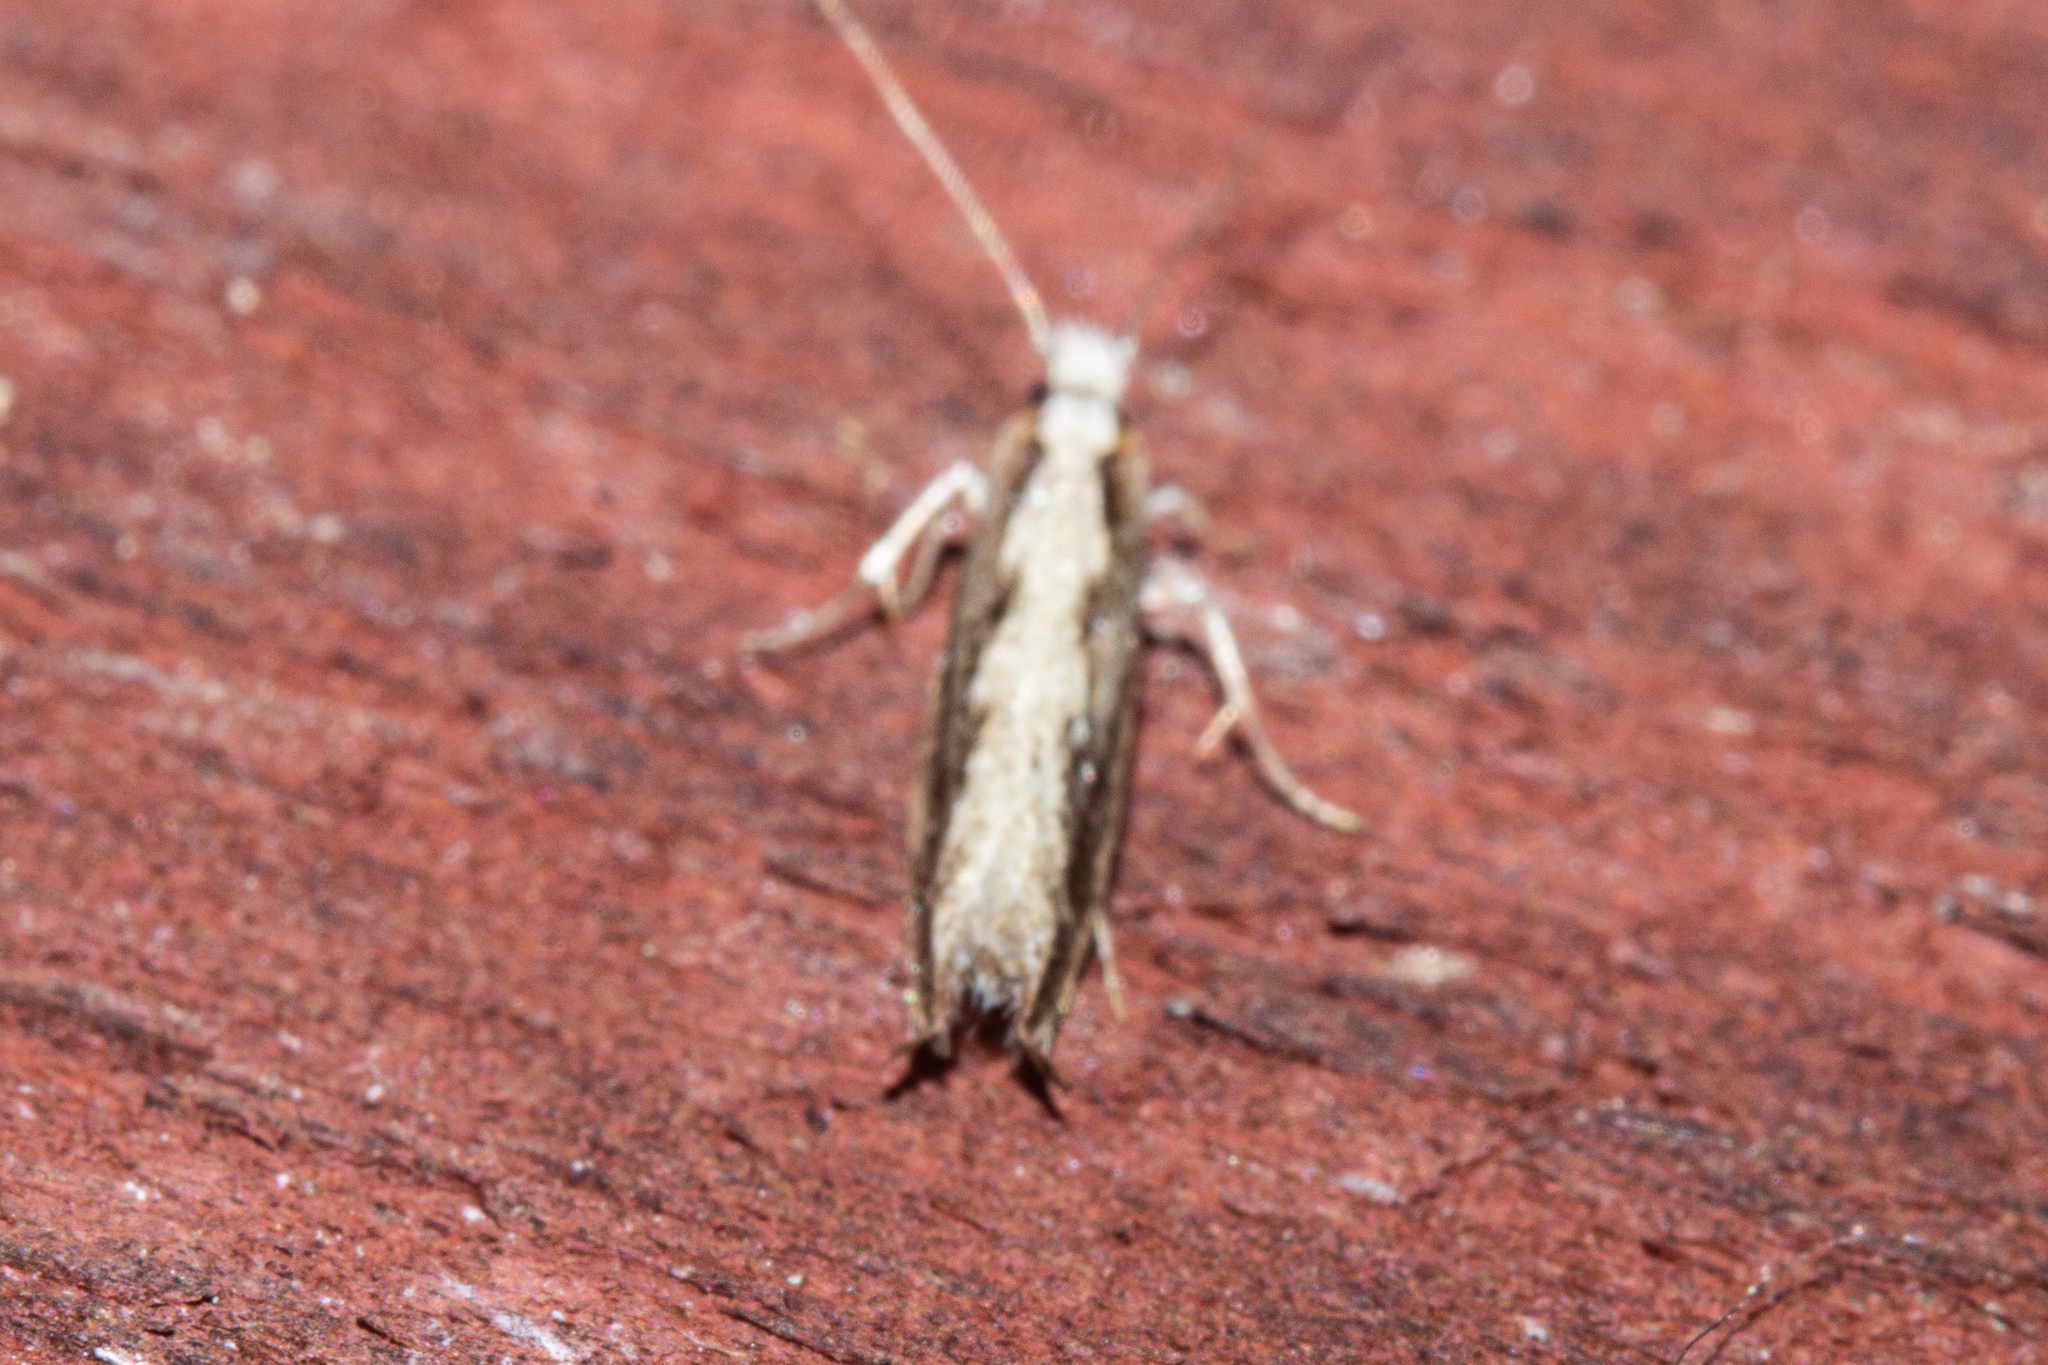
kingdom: Animalia
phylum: Arthropoda
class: Insecta
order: Lepidoptera
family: Tineidae
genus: Erechthias
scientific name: Erechthias fulguritella
